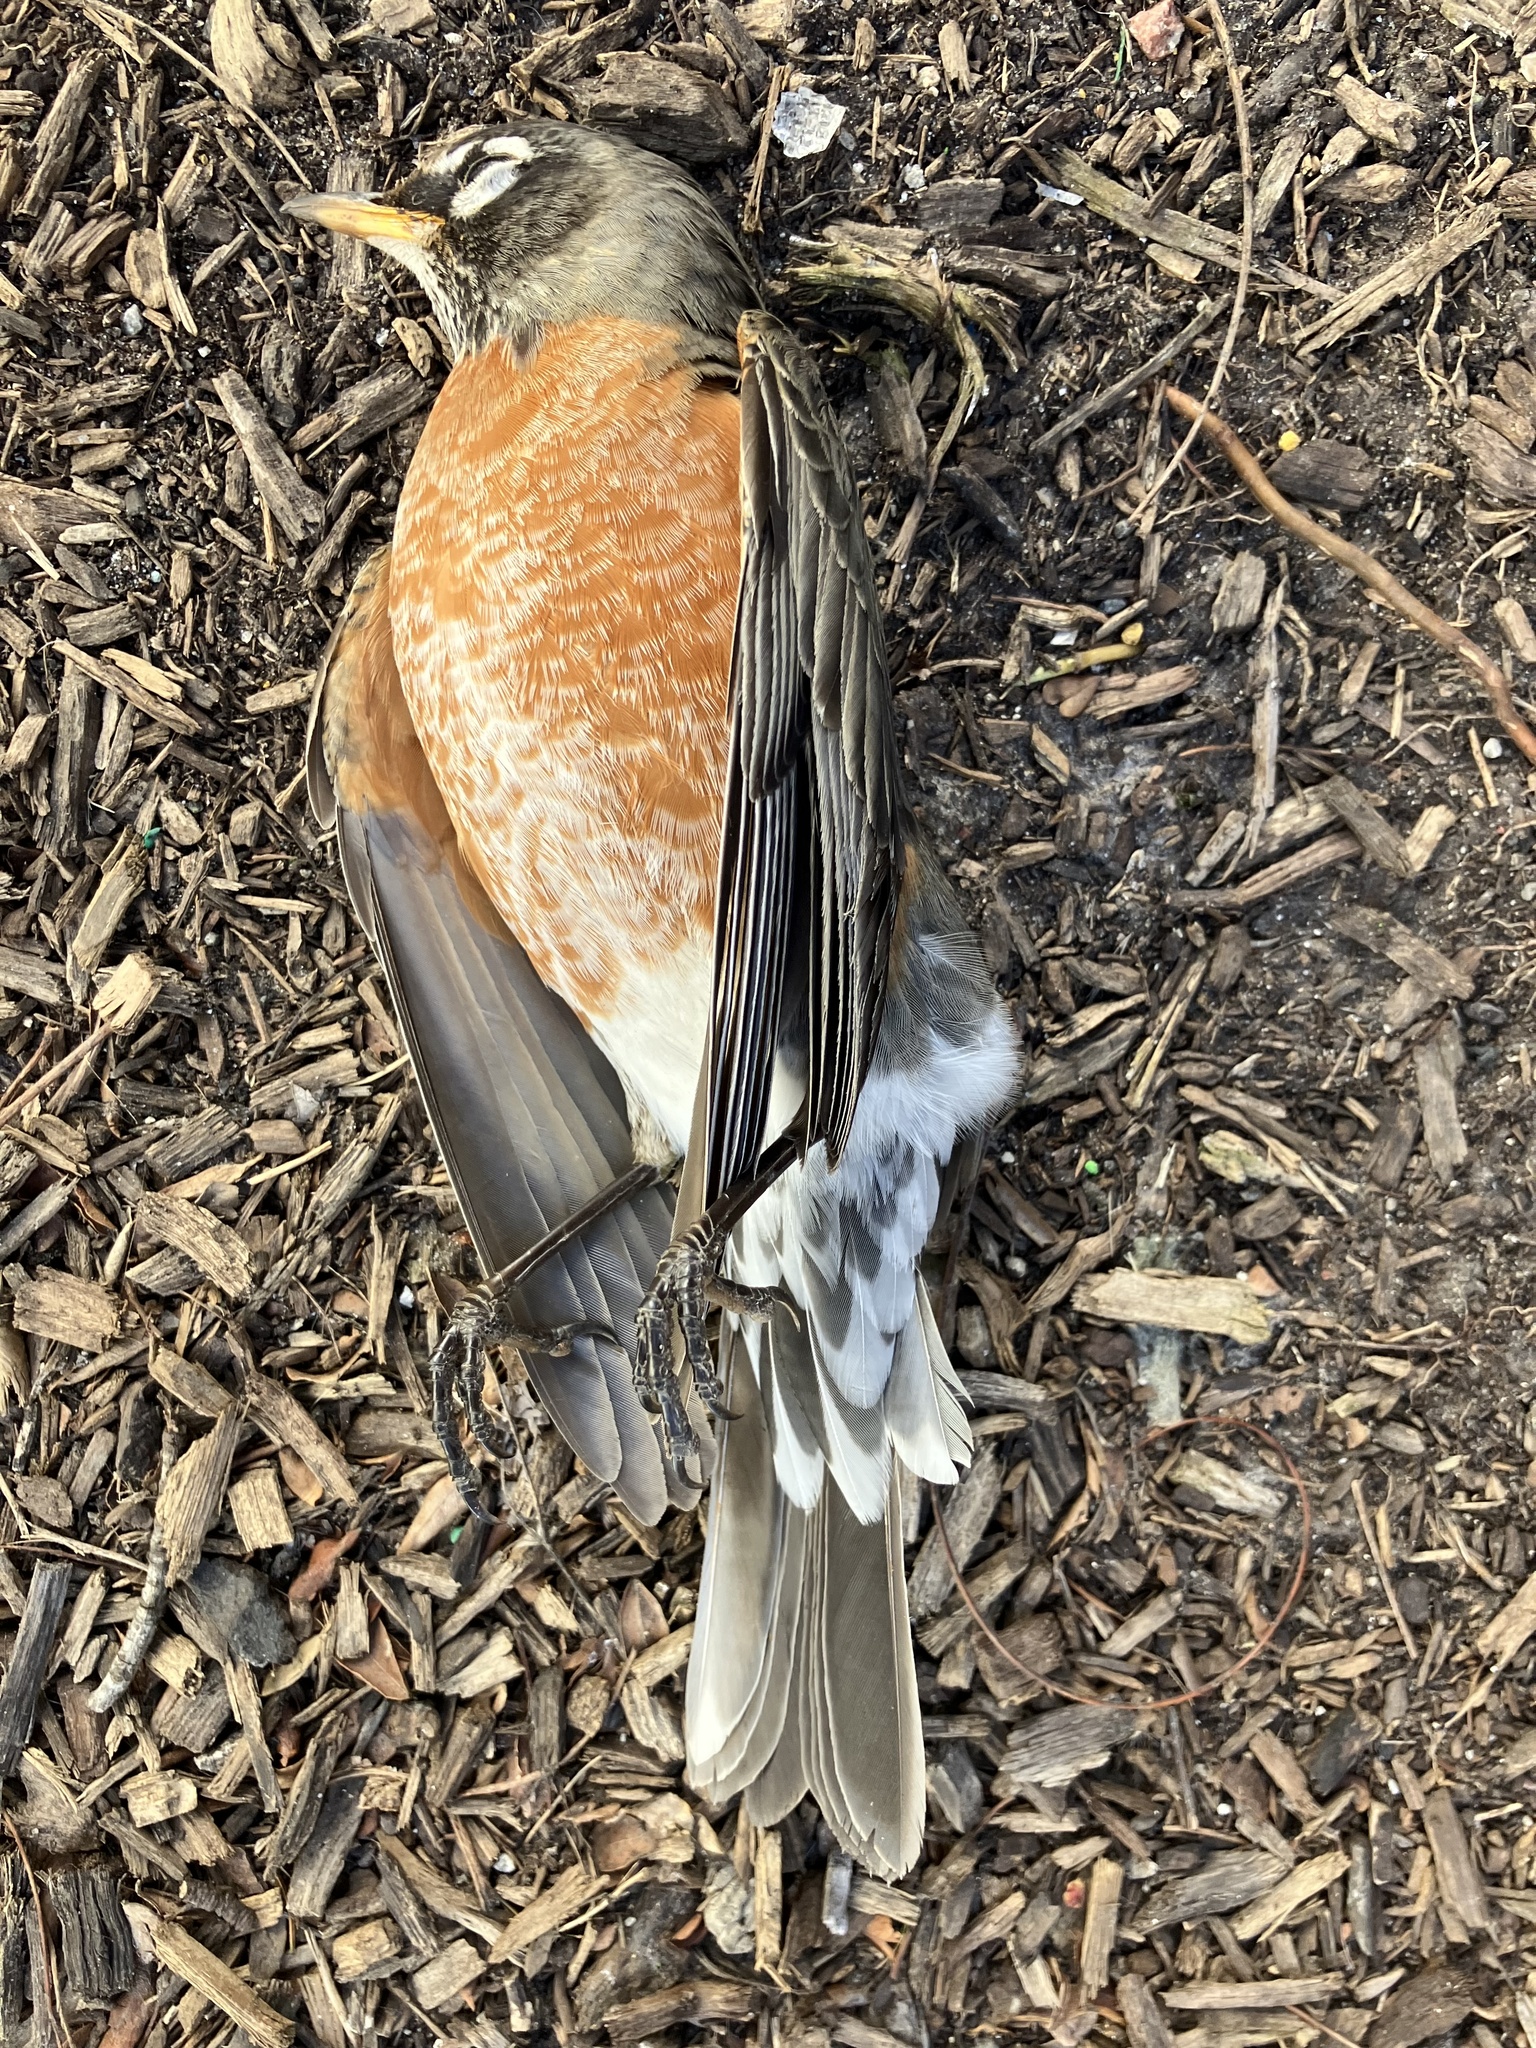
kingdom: Animalia
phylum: Chordata
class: Aves
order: Passeriformes
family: Turdidae
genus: Turdus
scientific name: Turdus migratorius
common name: American robin
